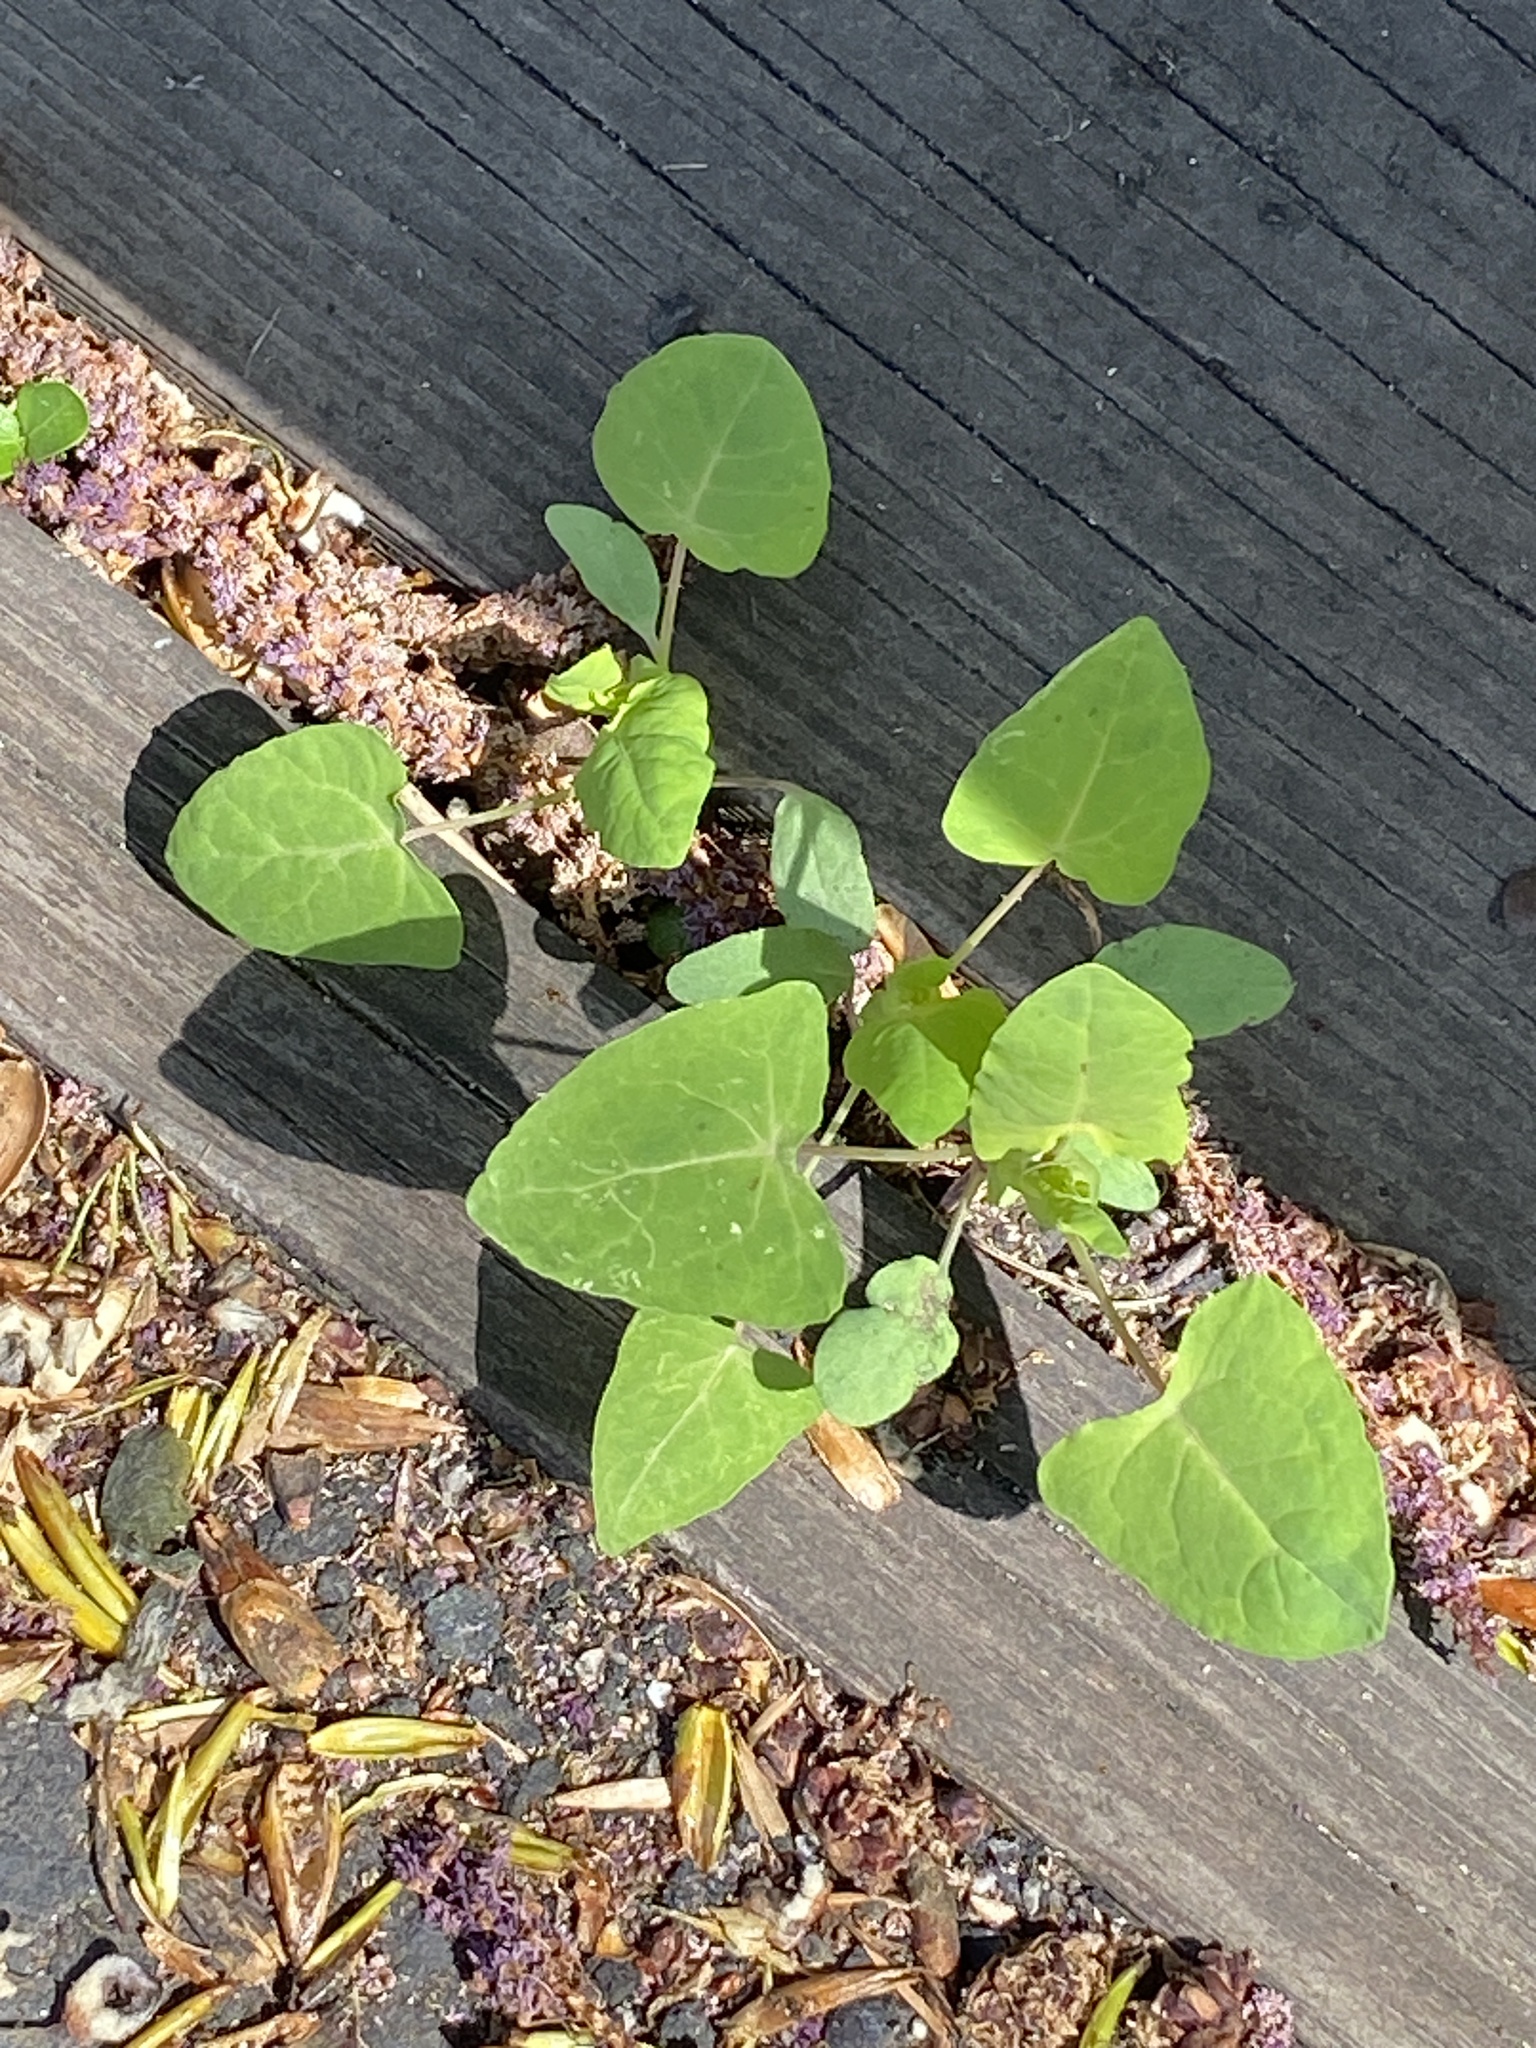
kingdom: Plantae
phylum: Tracheophyta
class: Magnoliopsida
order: Caryophyllales
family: Polygonaceae
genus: Persicaria
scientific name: Persicaria perfoliata
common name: Asiatic tearthumb
